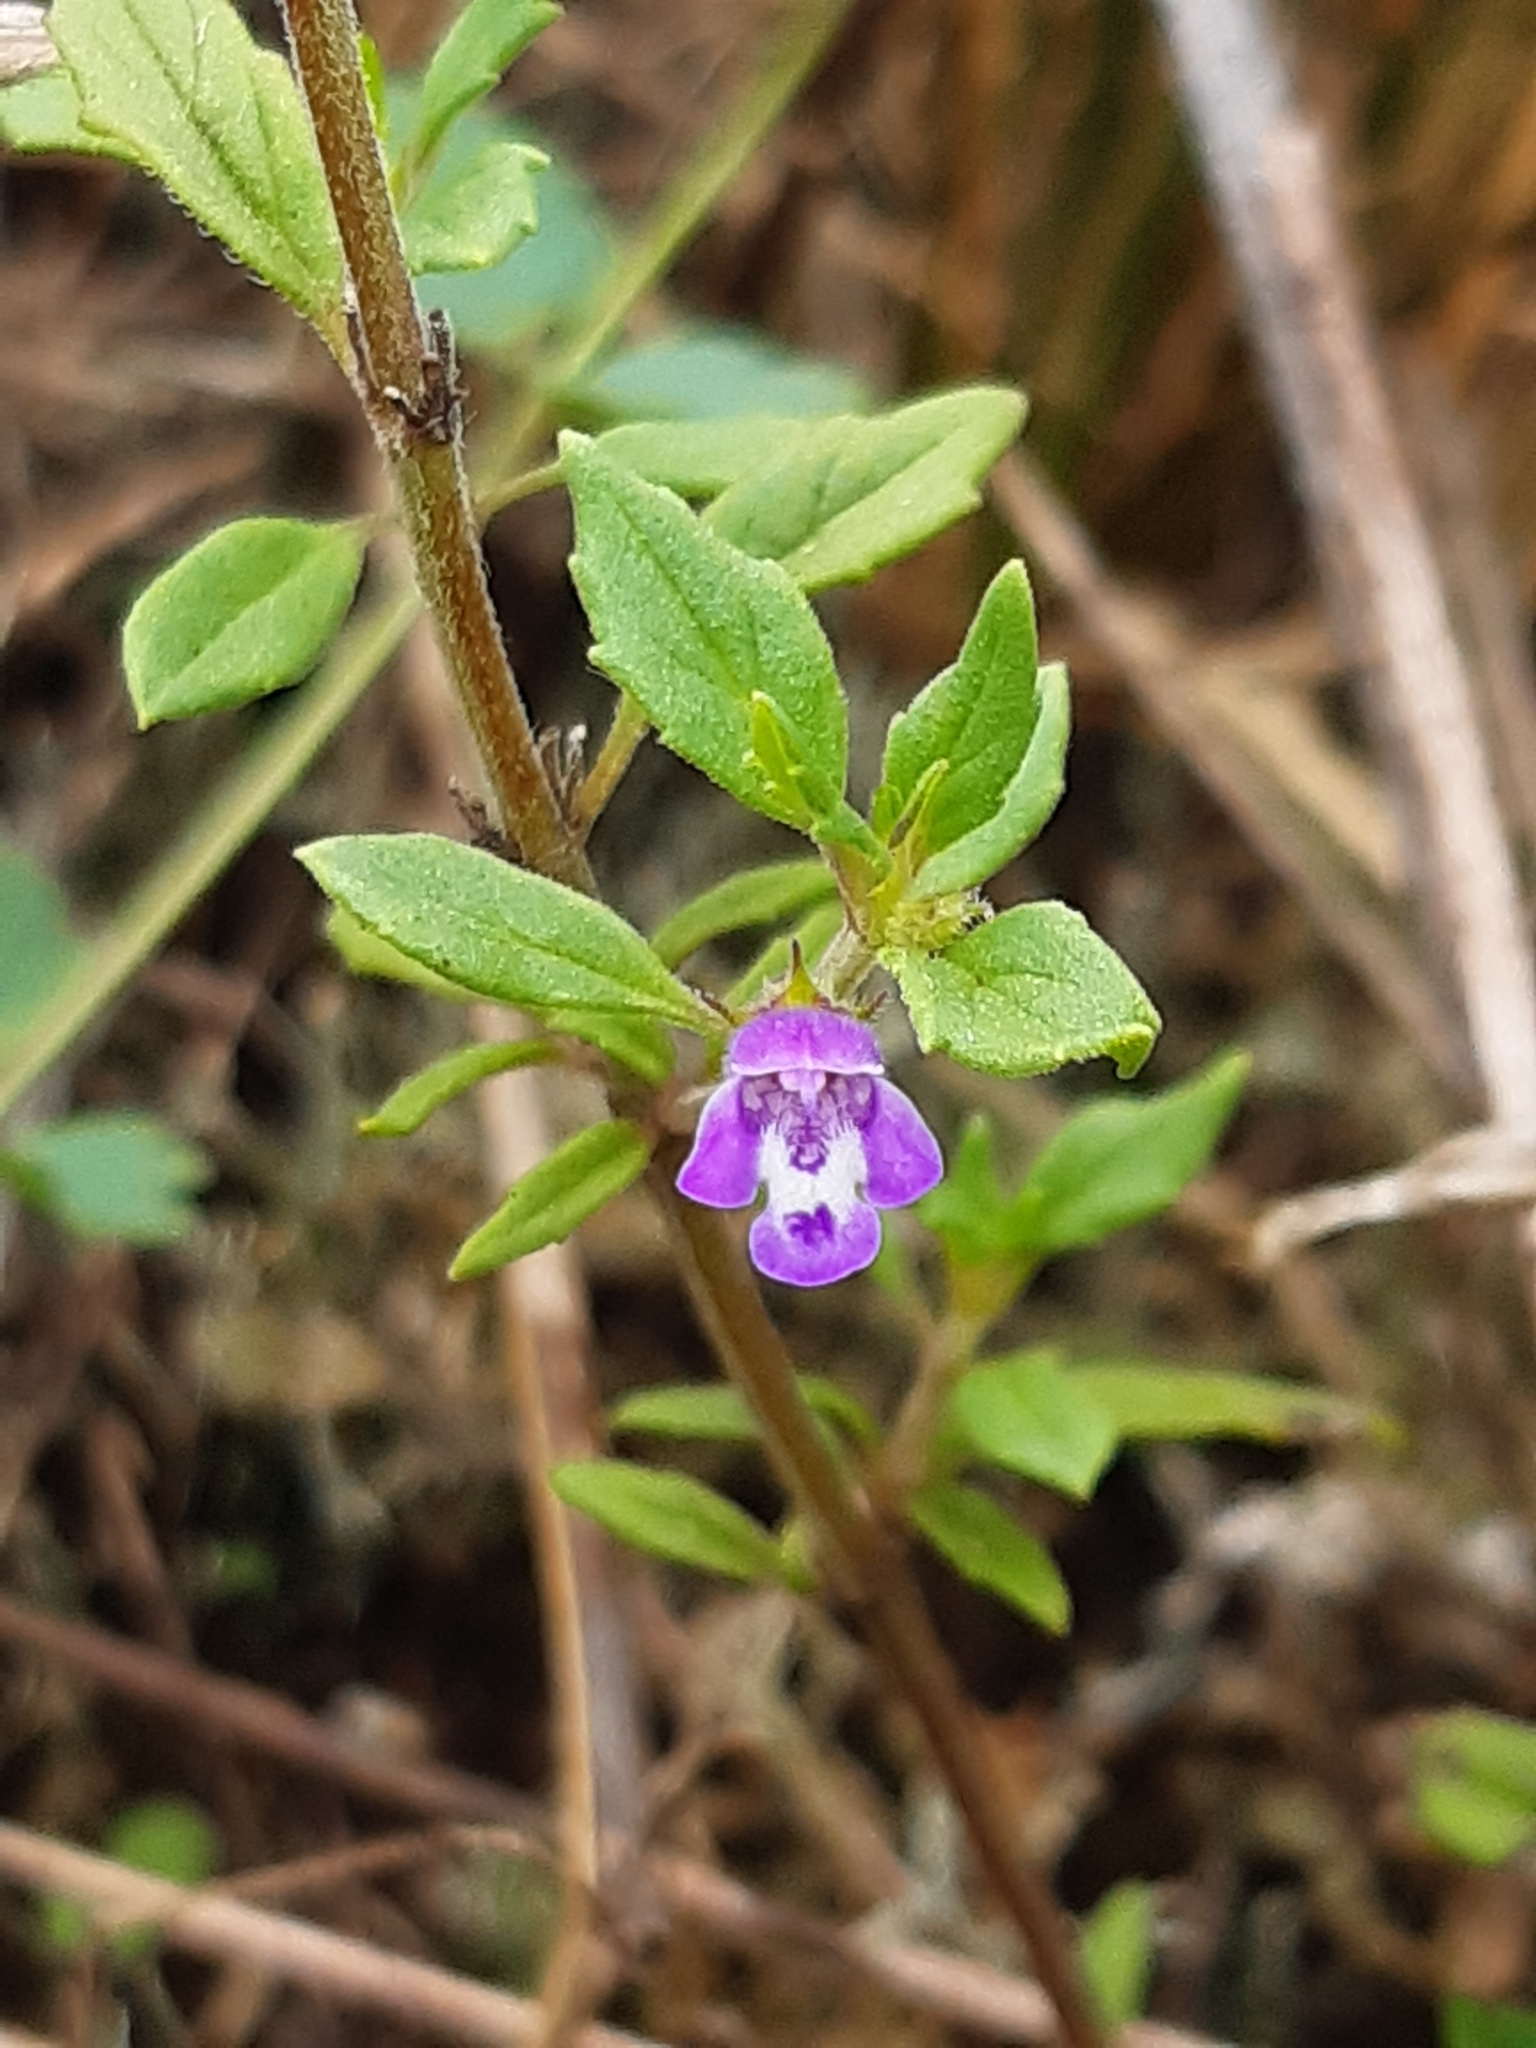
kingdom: Plantae
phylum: Tracheophyta
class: Magnoliopsida
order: Lamiales
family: Lamiaceae
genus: Clinopodium
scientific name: Clinopodium acinos
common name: Basil thyme
